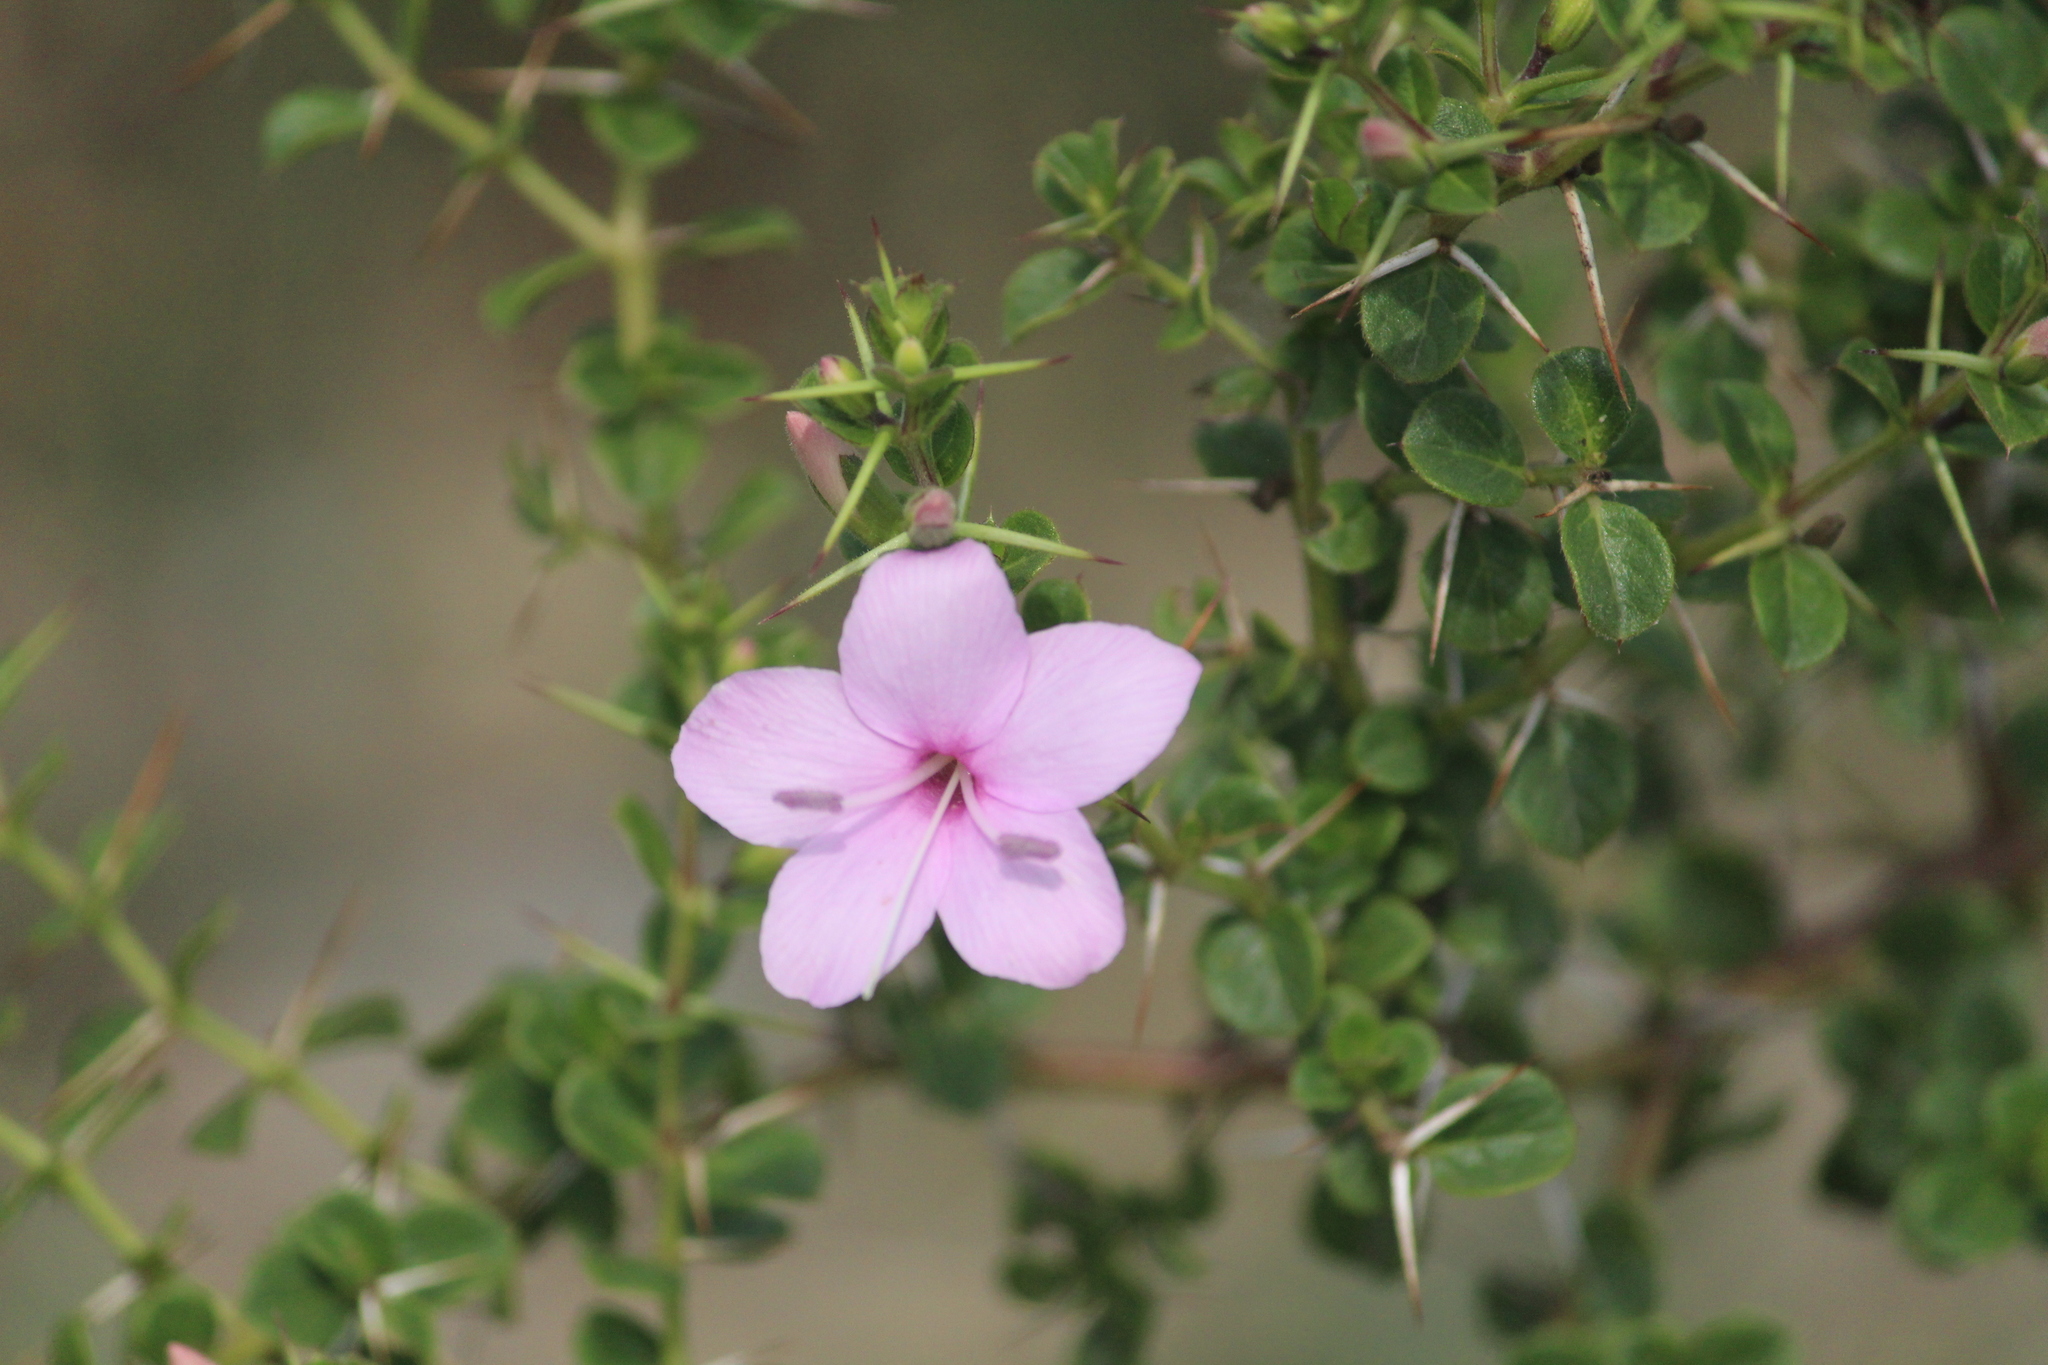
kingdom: Plantae
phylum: Tracheophyta
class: Magnoliopsida
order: Lamiales
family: Acanthaceae
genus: Barleria
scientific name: Barleria mysorensis
